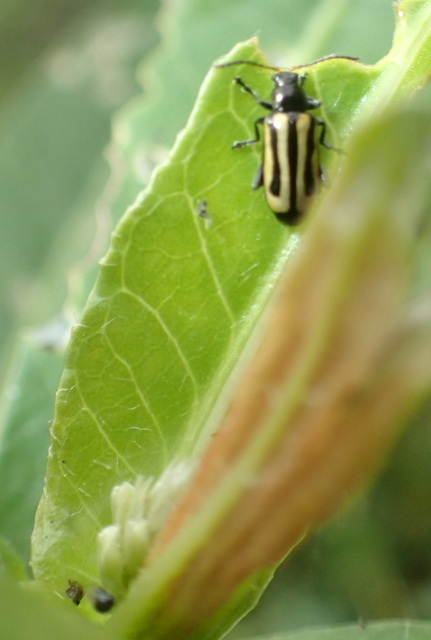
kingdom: Animalia
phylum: Arthropoda
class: Insecta
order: Coleoptera
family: Chrysomelidae
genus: Agasicles
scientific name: Agasicles hygrophila
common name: Alligatorweed flea beetle
